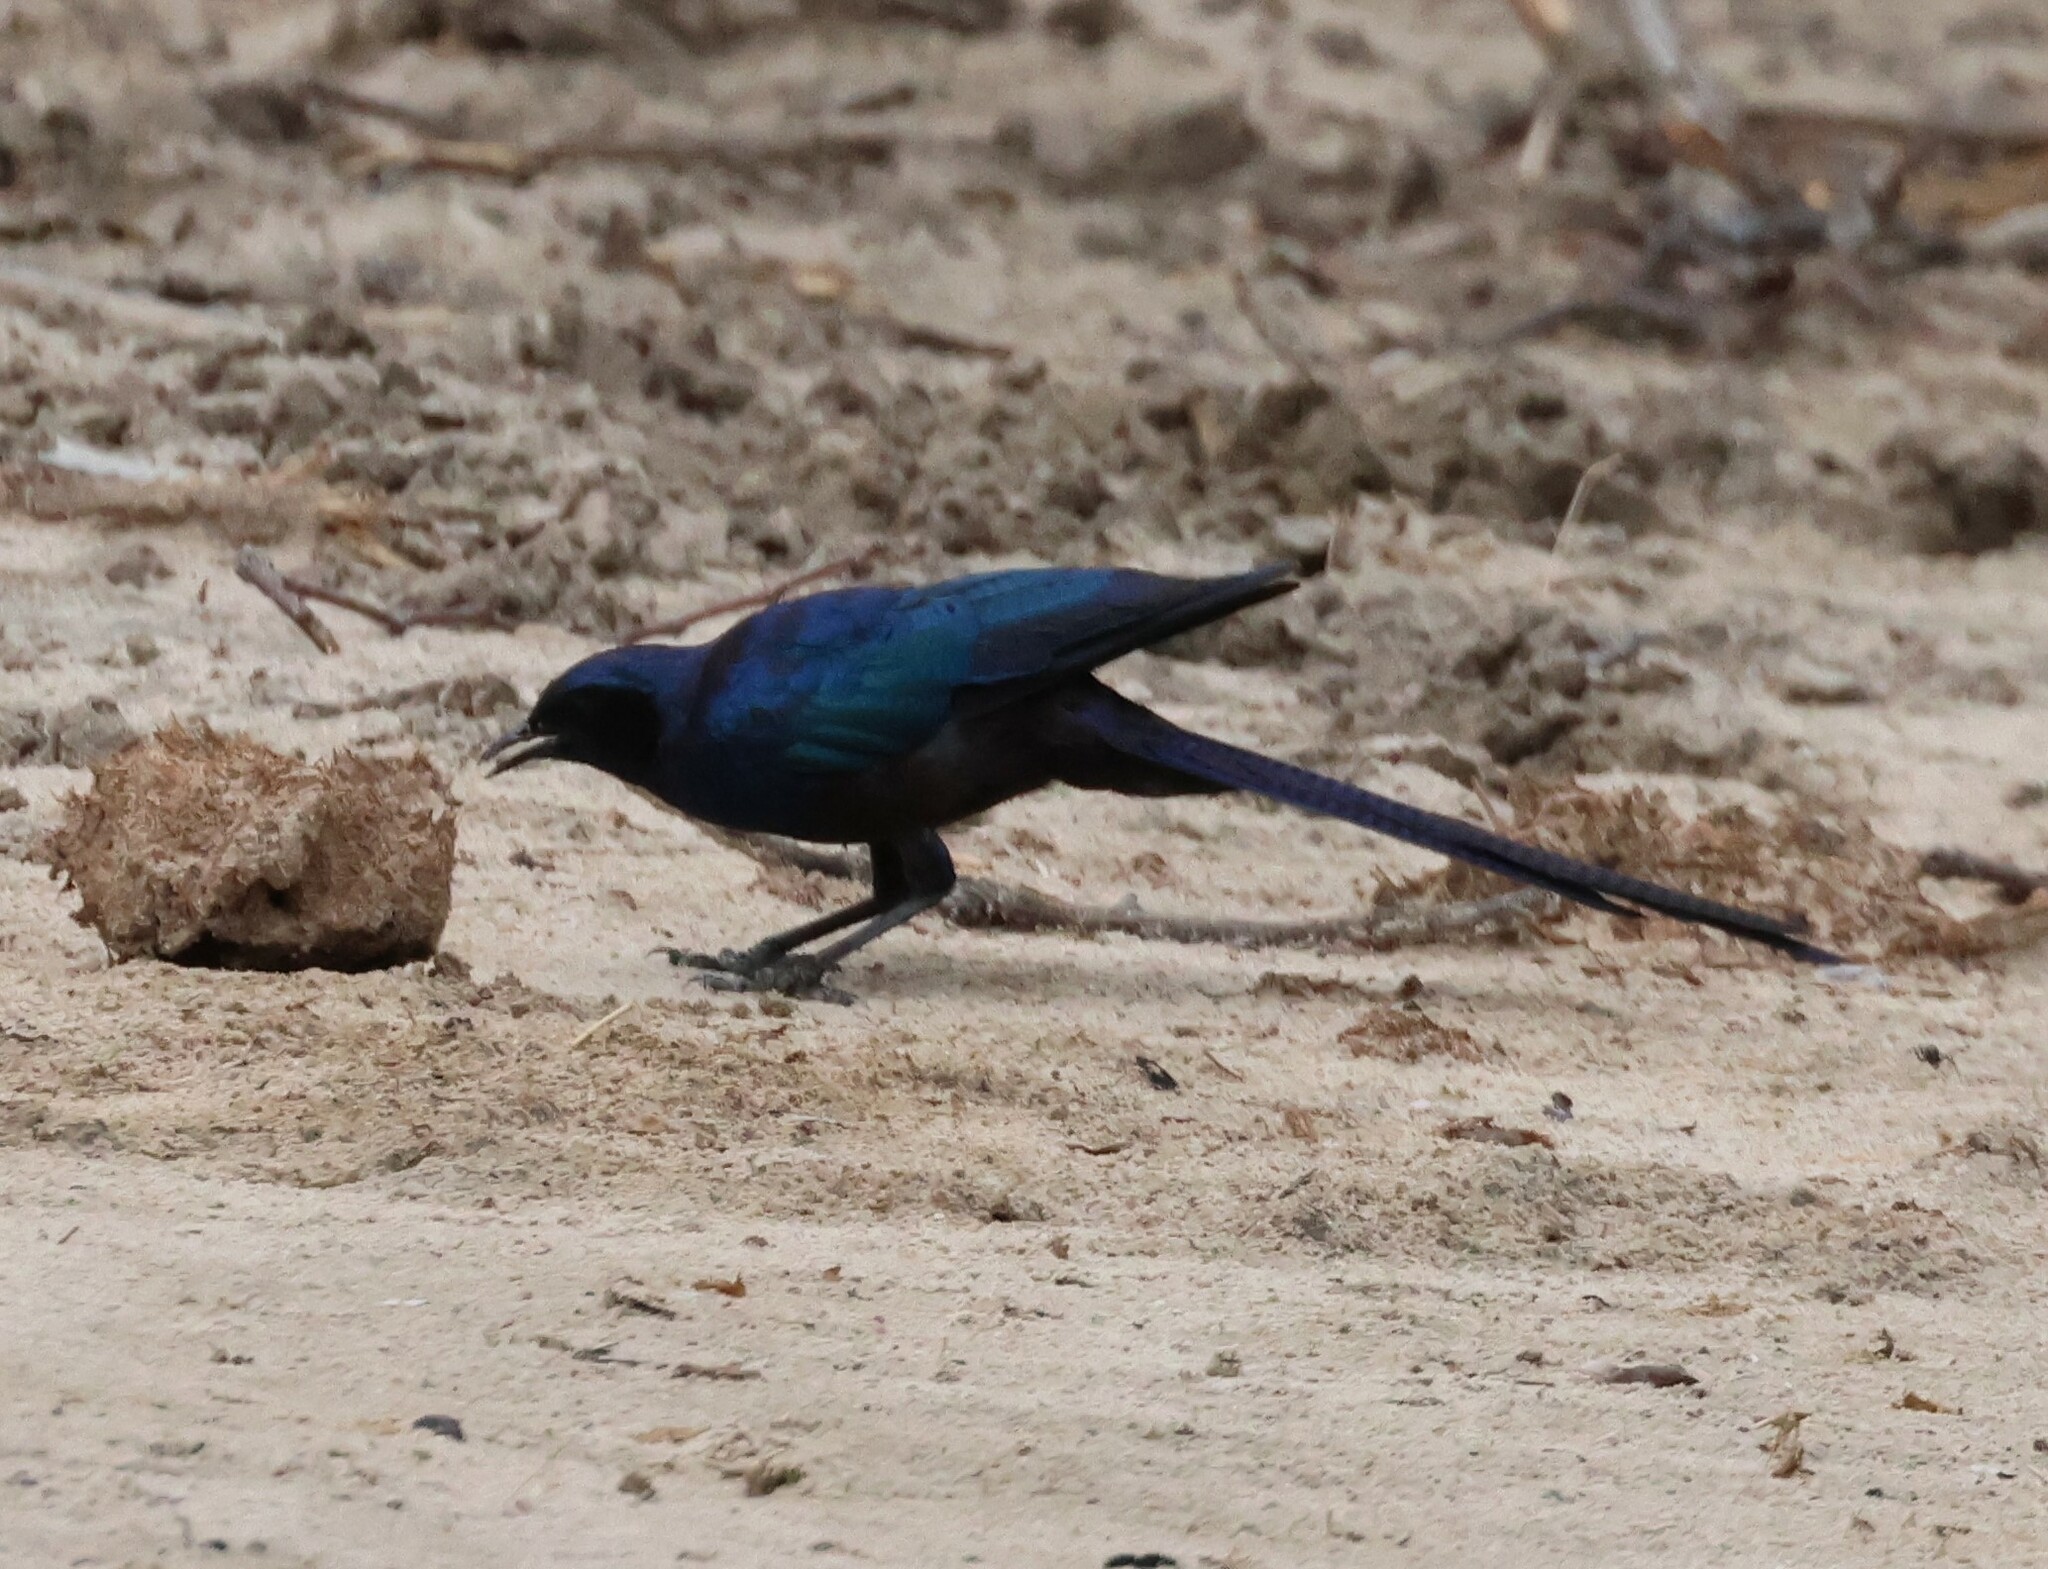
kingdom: Animalia
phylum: Chordata
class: Aves
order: Passeriformes
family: Sturnidae
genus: Lamprotornis
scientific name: Lamprotornis mevesii
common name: Meves's starling
